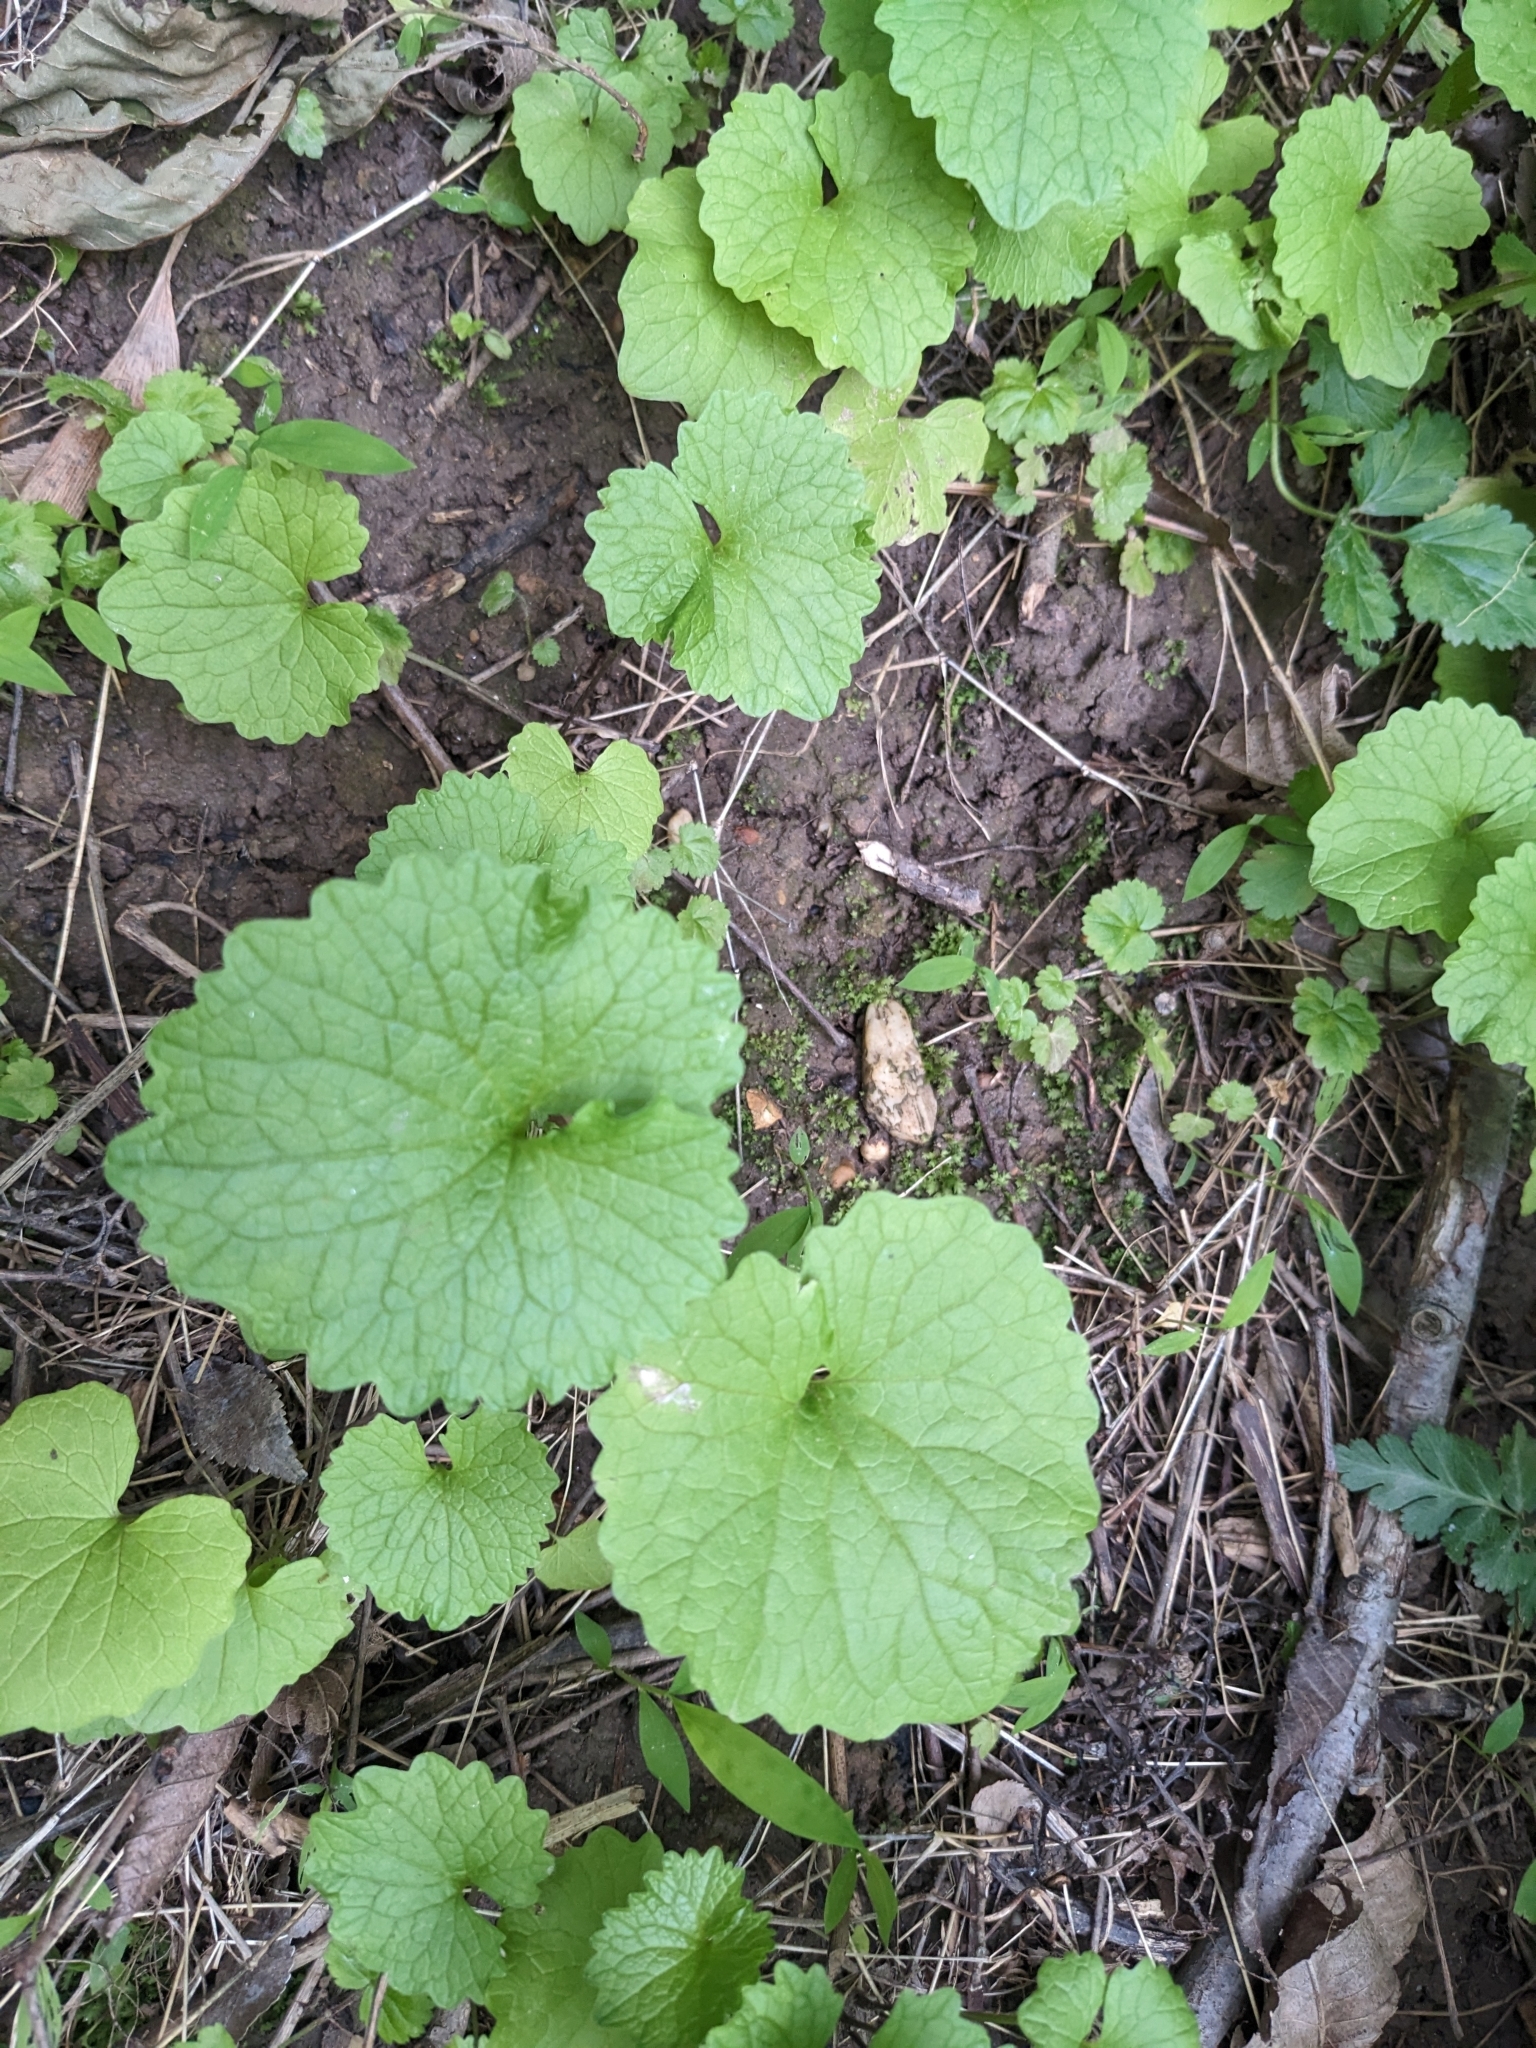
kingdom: Plantae
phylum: Tracheophyta
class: Magnoliopsida
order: Brassicales
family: Brassicaceae
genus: Alliaria
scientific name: Alliaria petiolata
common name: Garlic mustard
